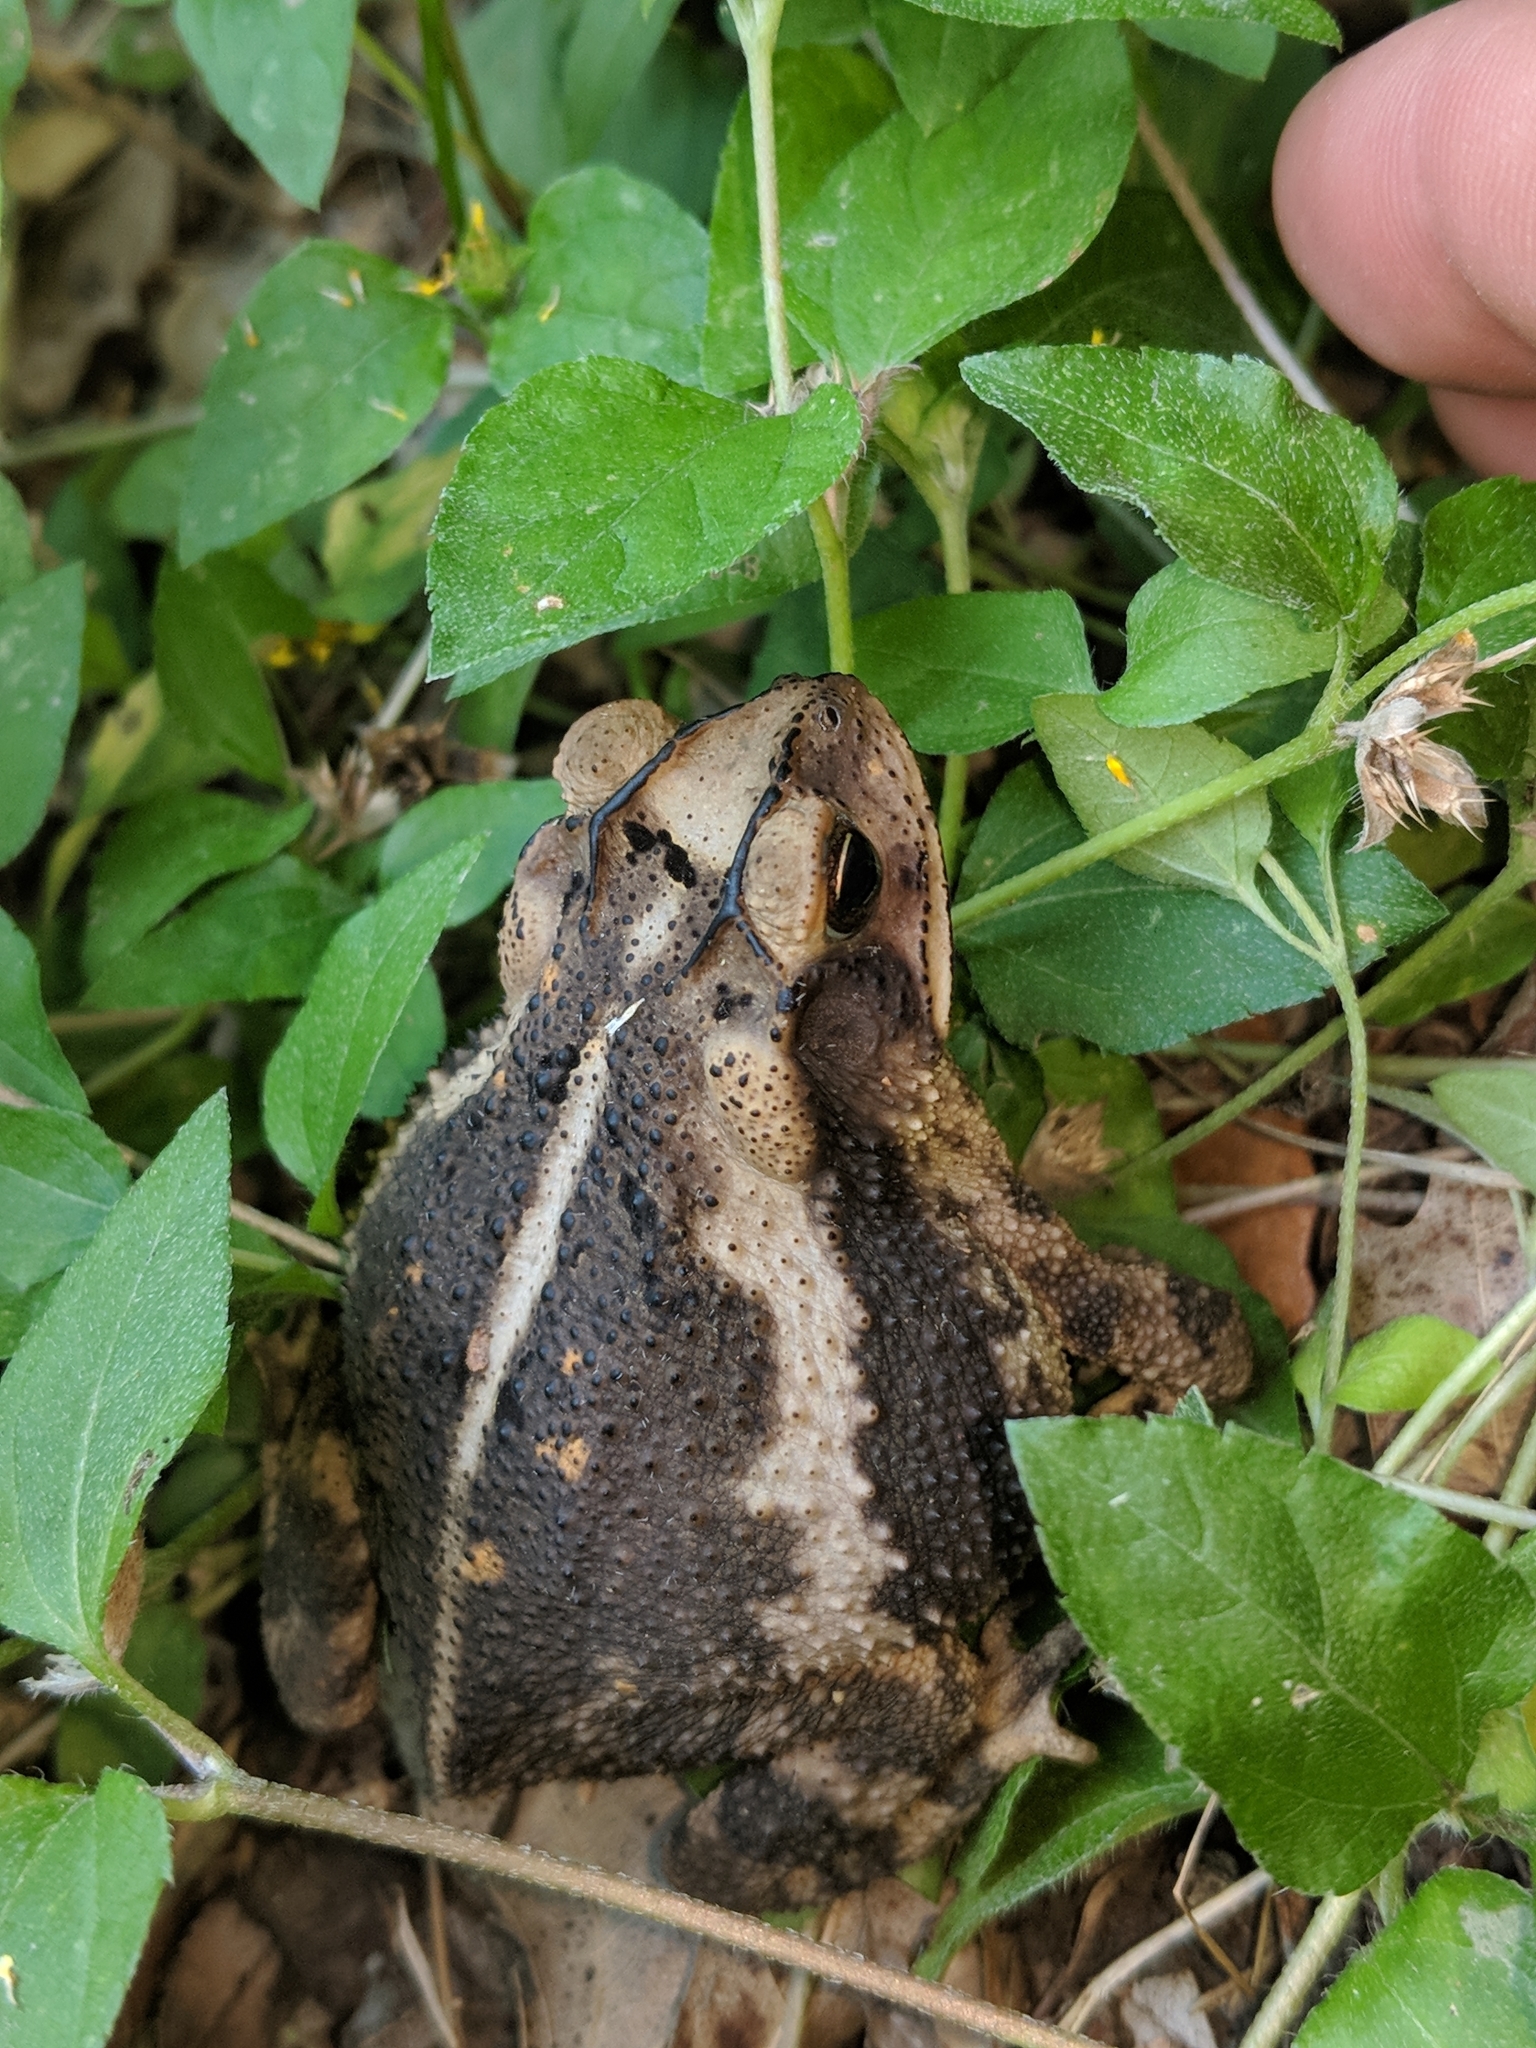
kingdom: Animalia
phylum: Chordata
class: Amphibia
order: Anura
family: Bufonidae
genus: Incilius
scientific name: Incilius nebulifer
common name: Gulf coast toad
